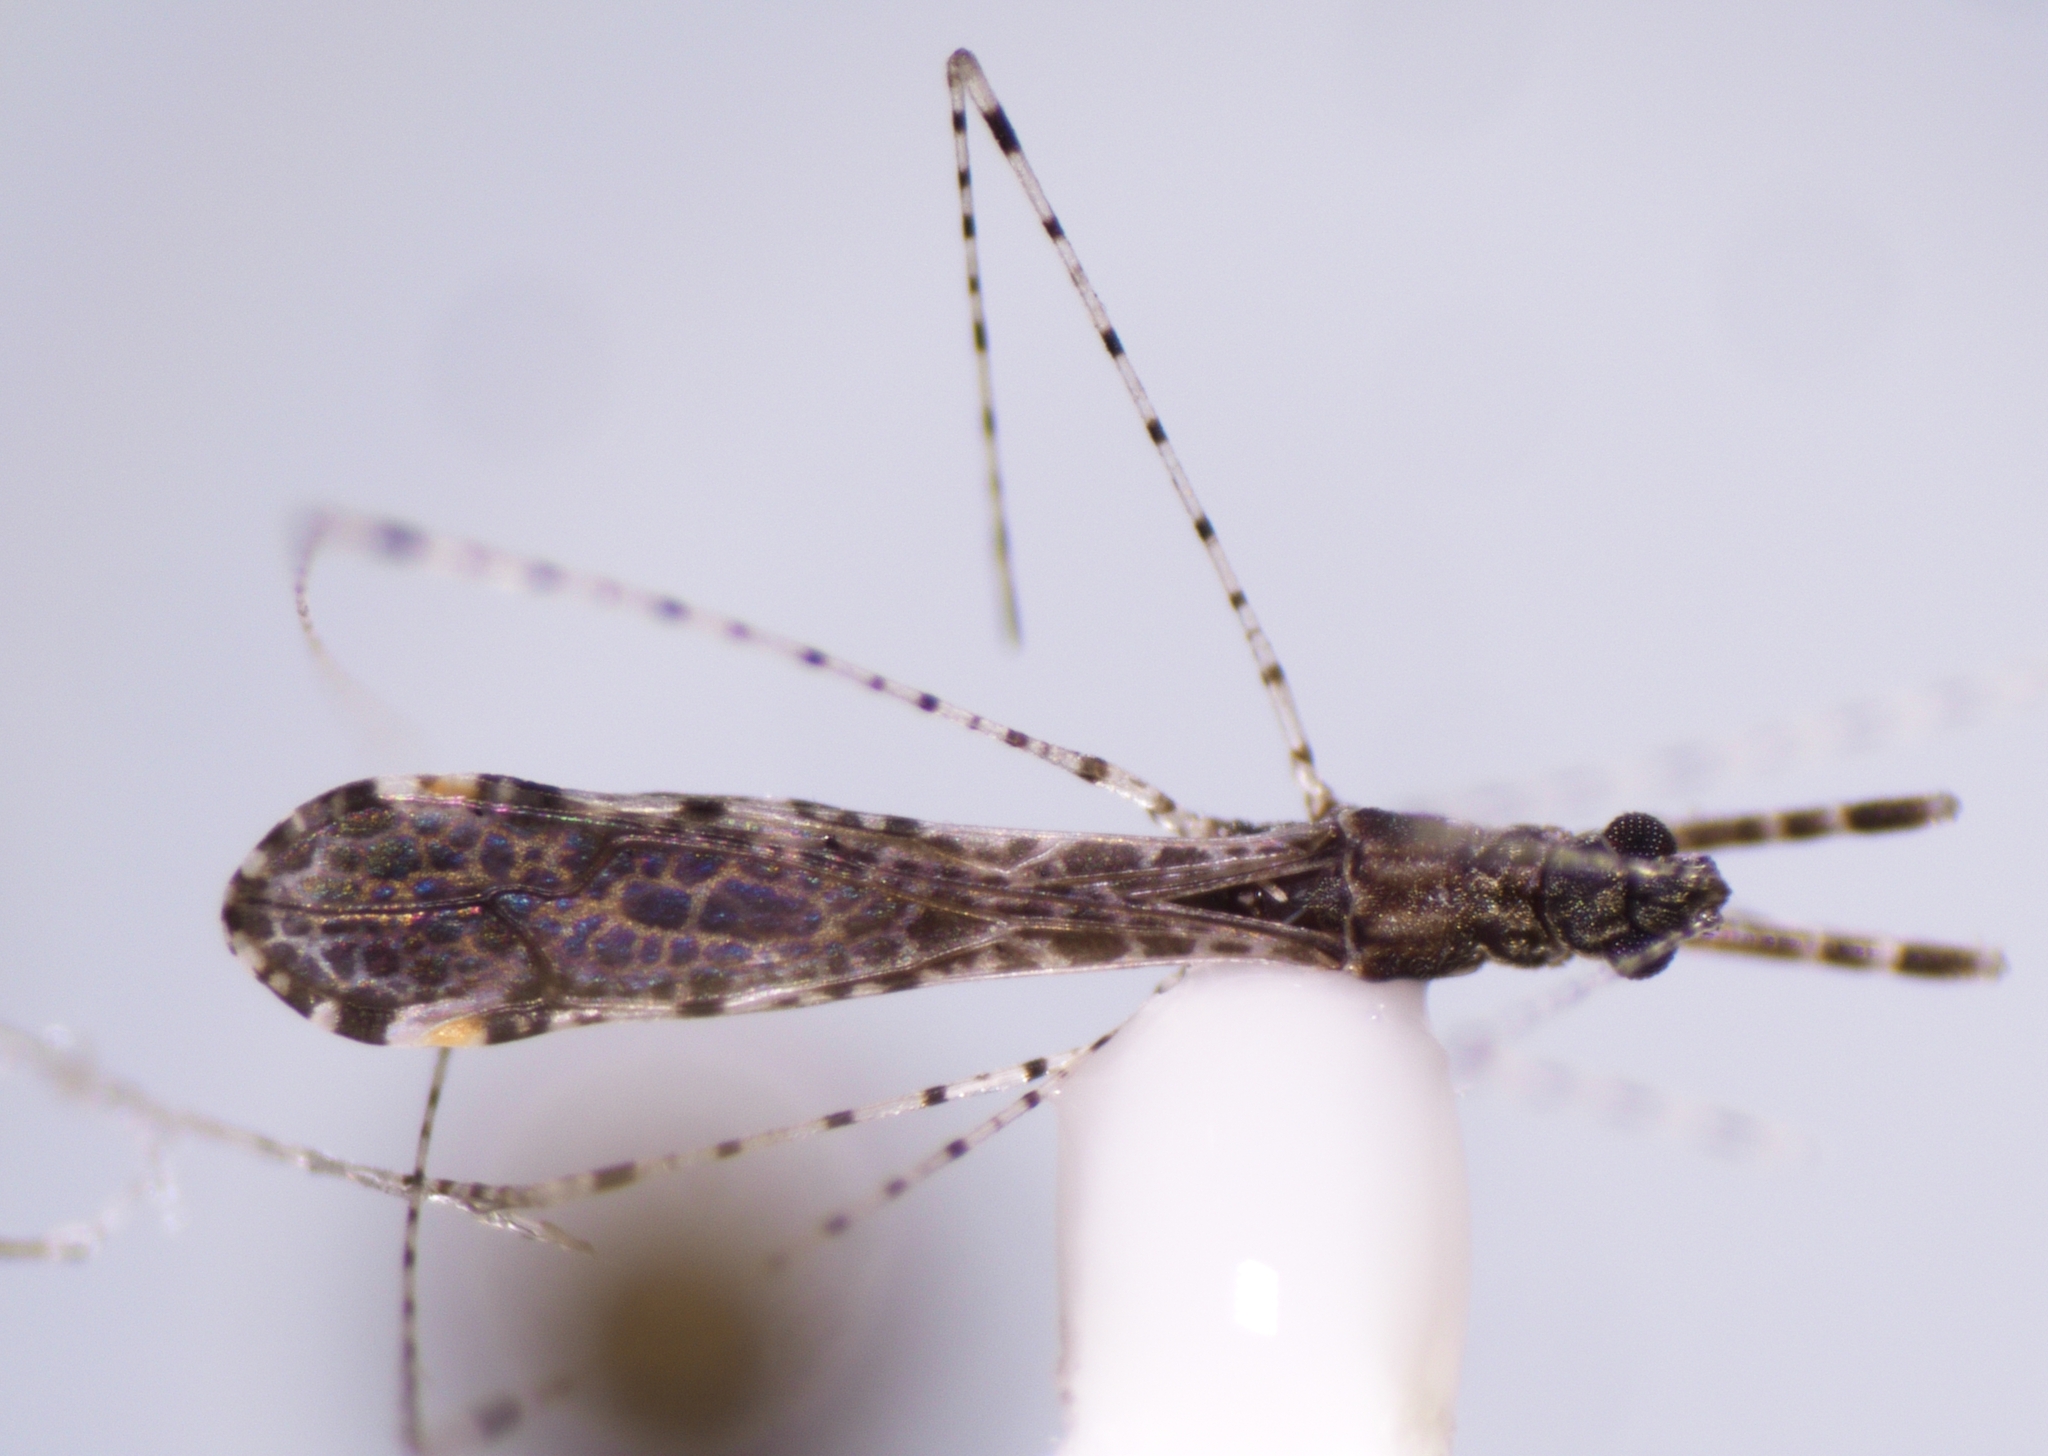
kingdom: Animalia
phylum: Arthropoda
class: Insecta
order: Hemiptera
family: Reduviidae
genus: Empicoris
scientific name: Empicoris minutus
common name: Thread-legged bug
